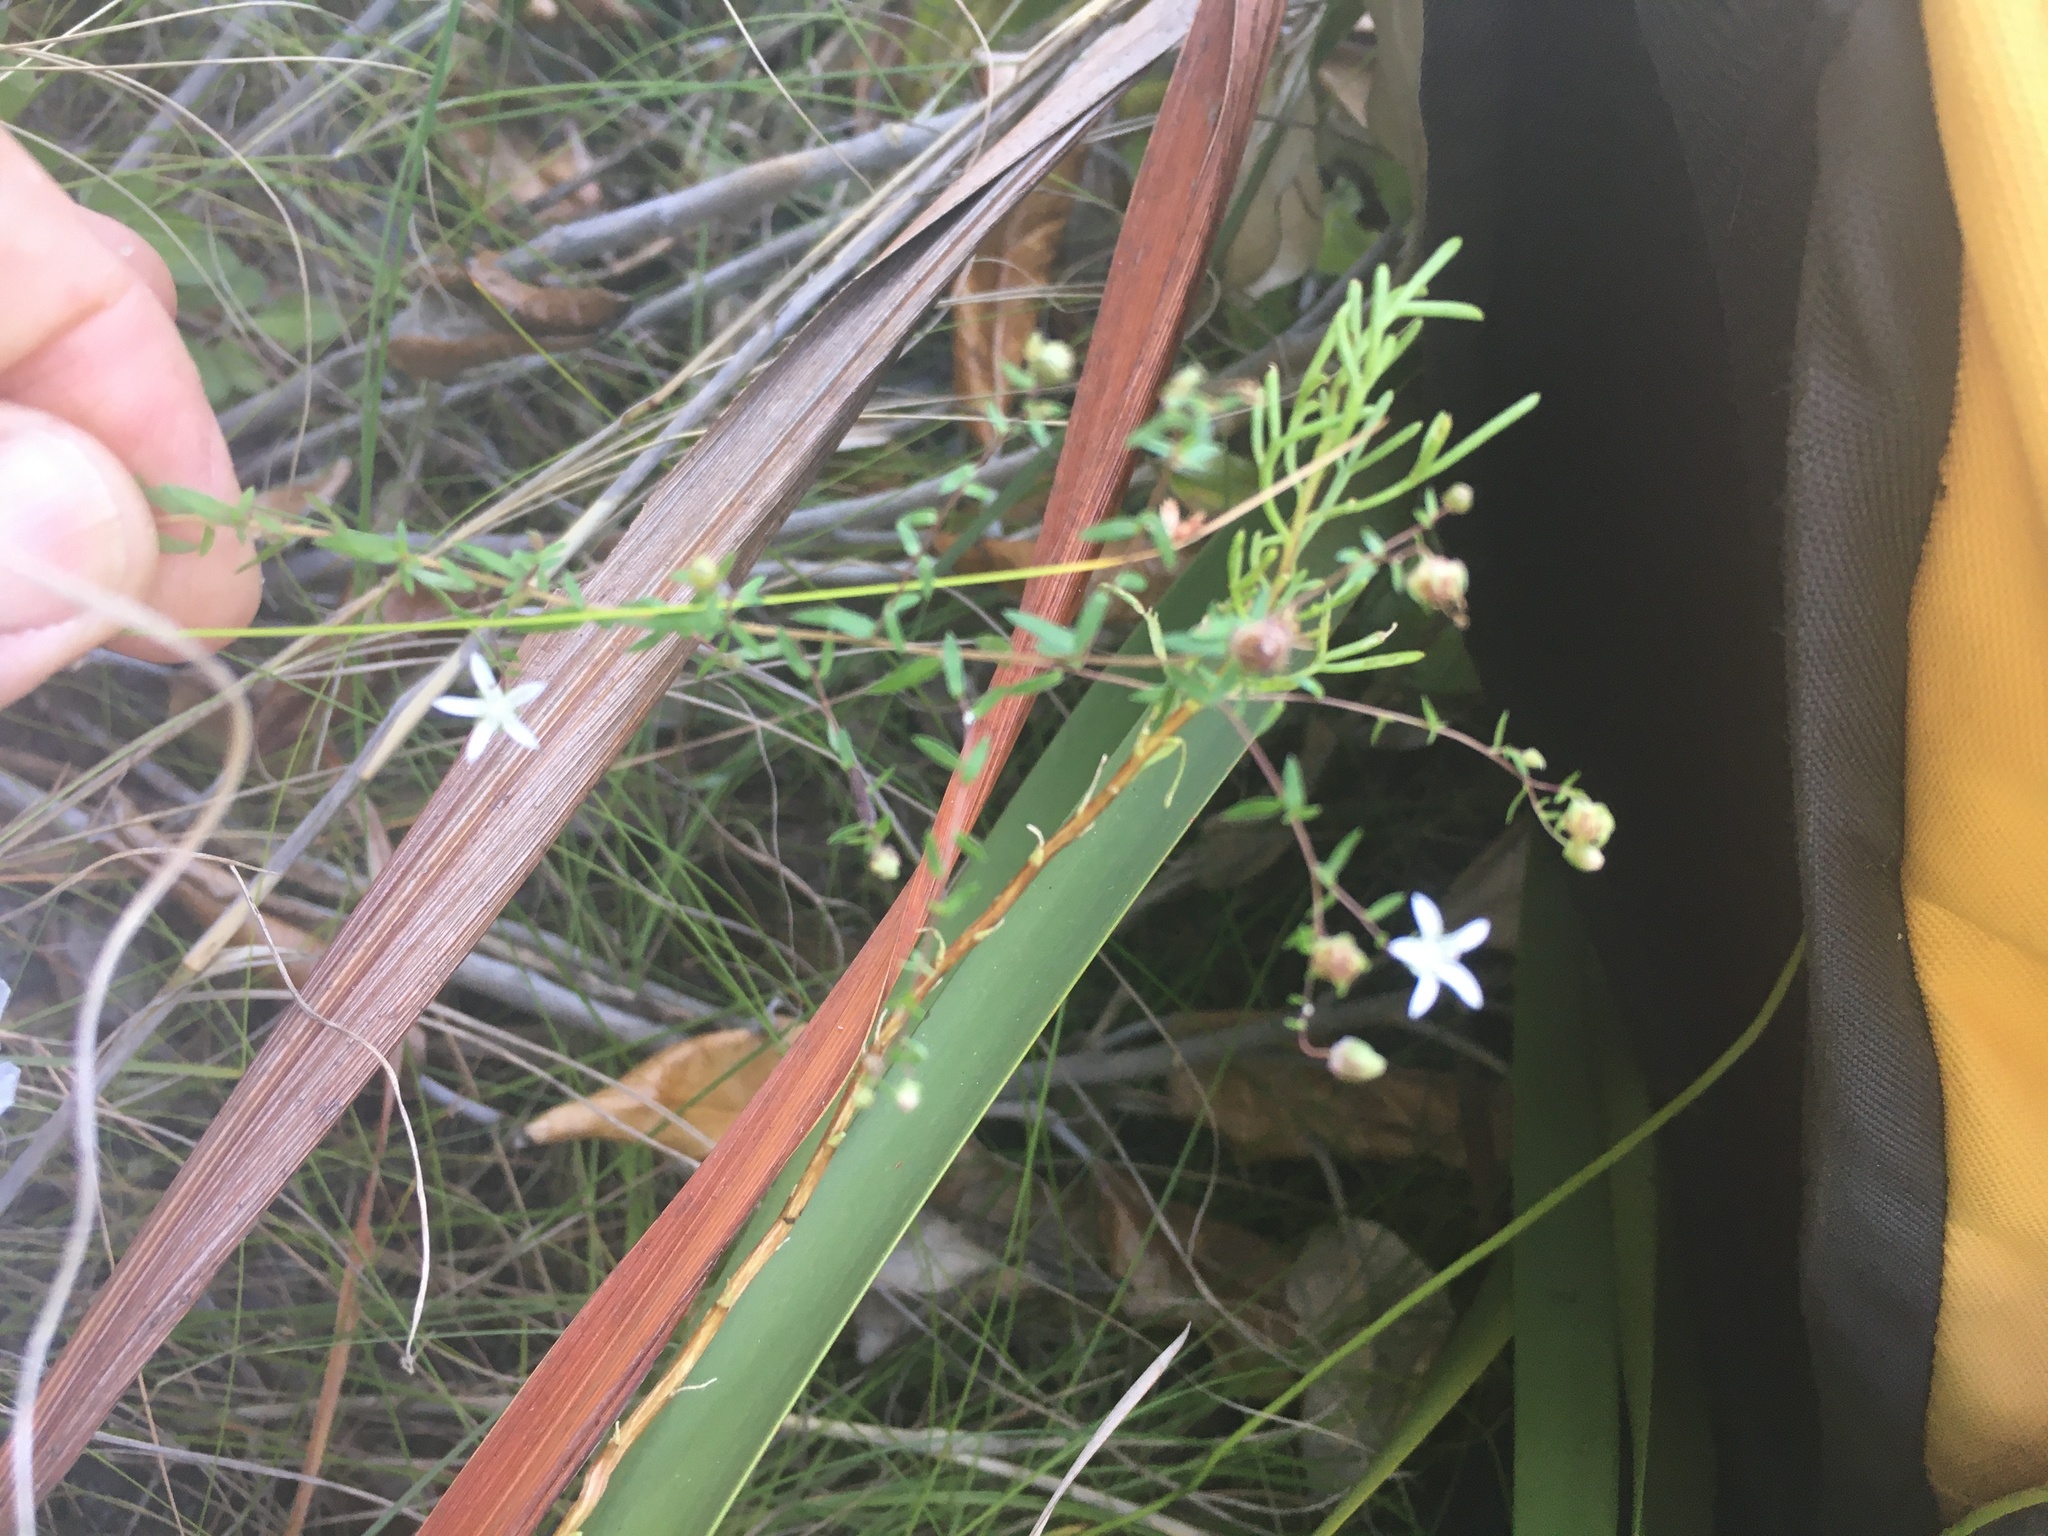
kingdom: Plantae
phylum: Tracheophyta
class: Magnoliopsida
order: Asterales
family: Campanulaceae
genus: Wahlenbergia
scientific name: Wahlenbergia parvifolia
